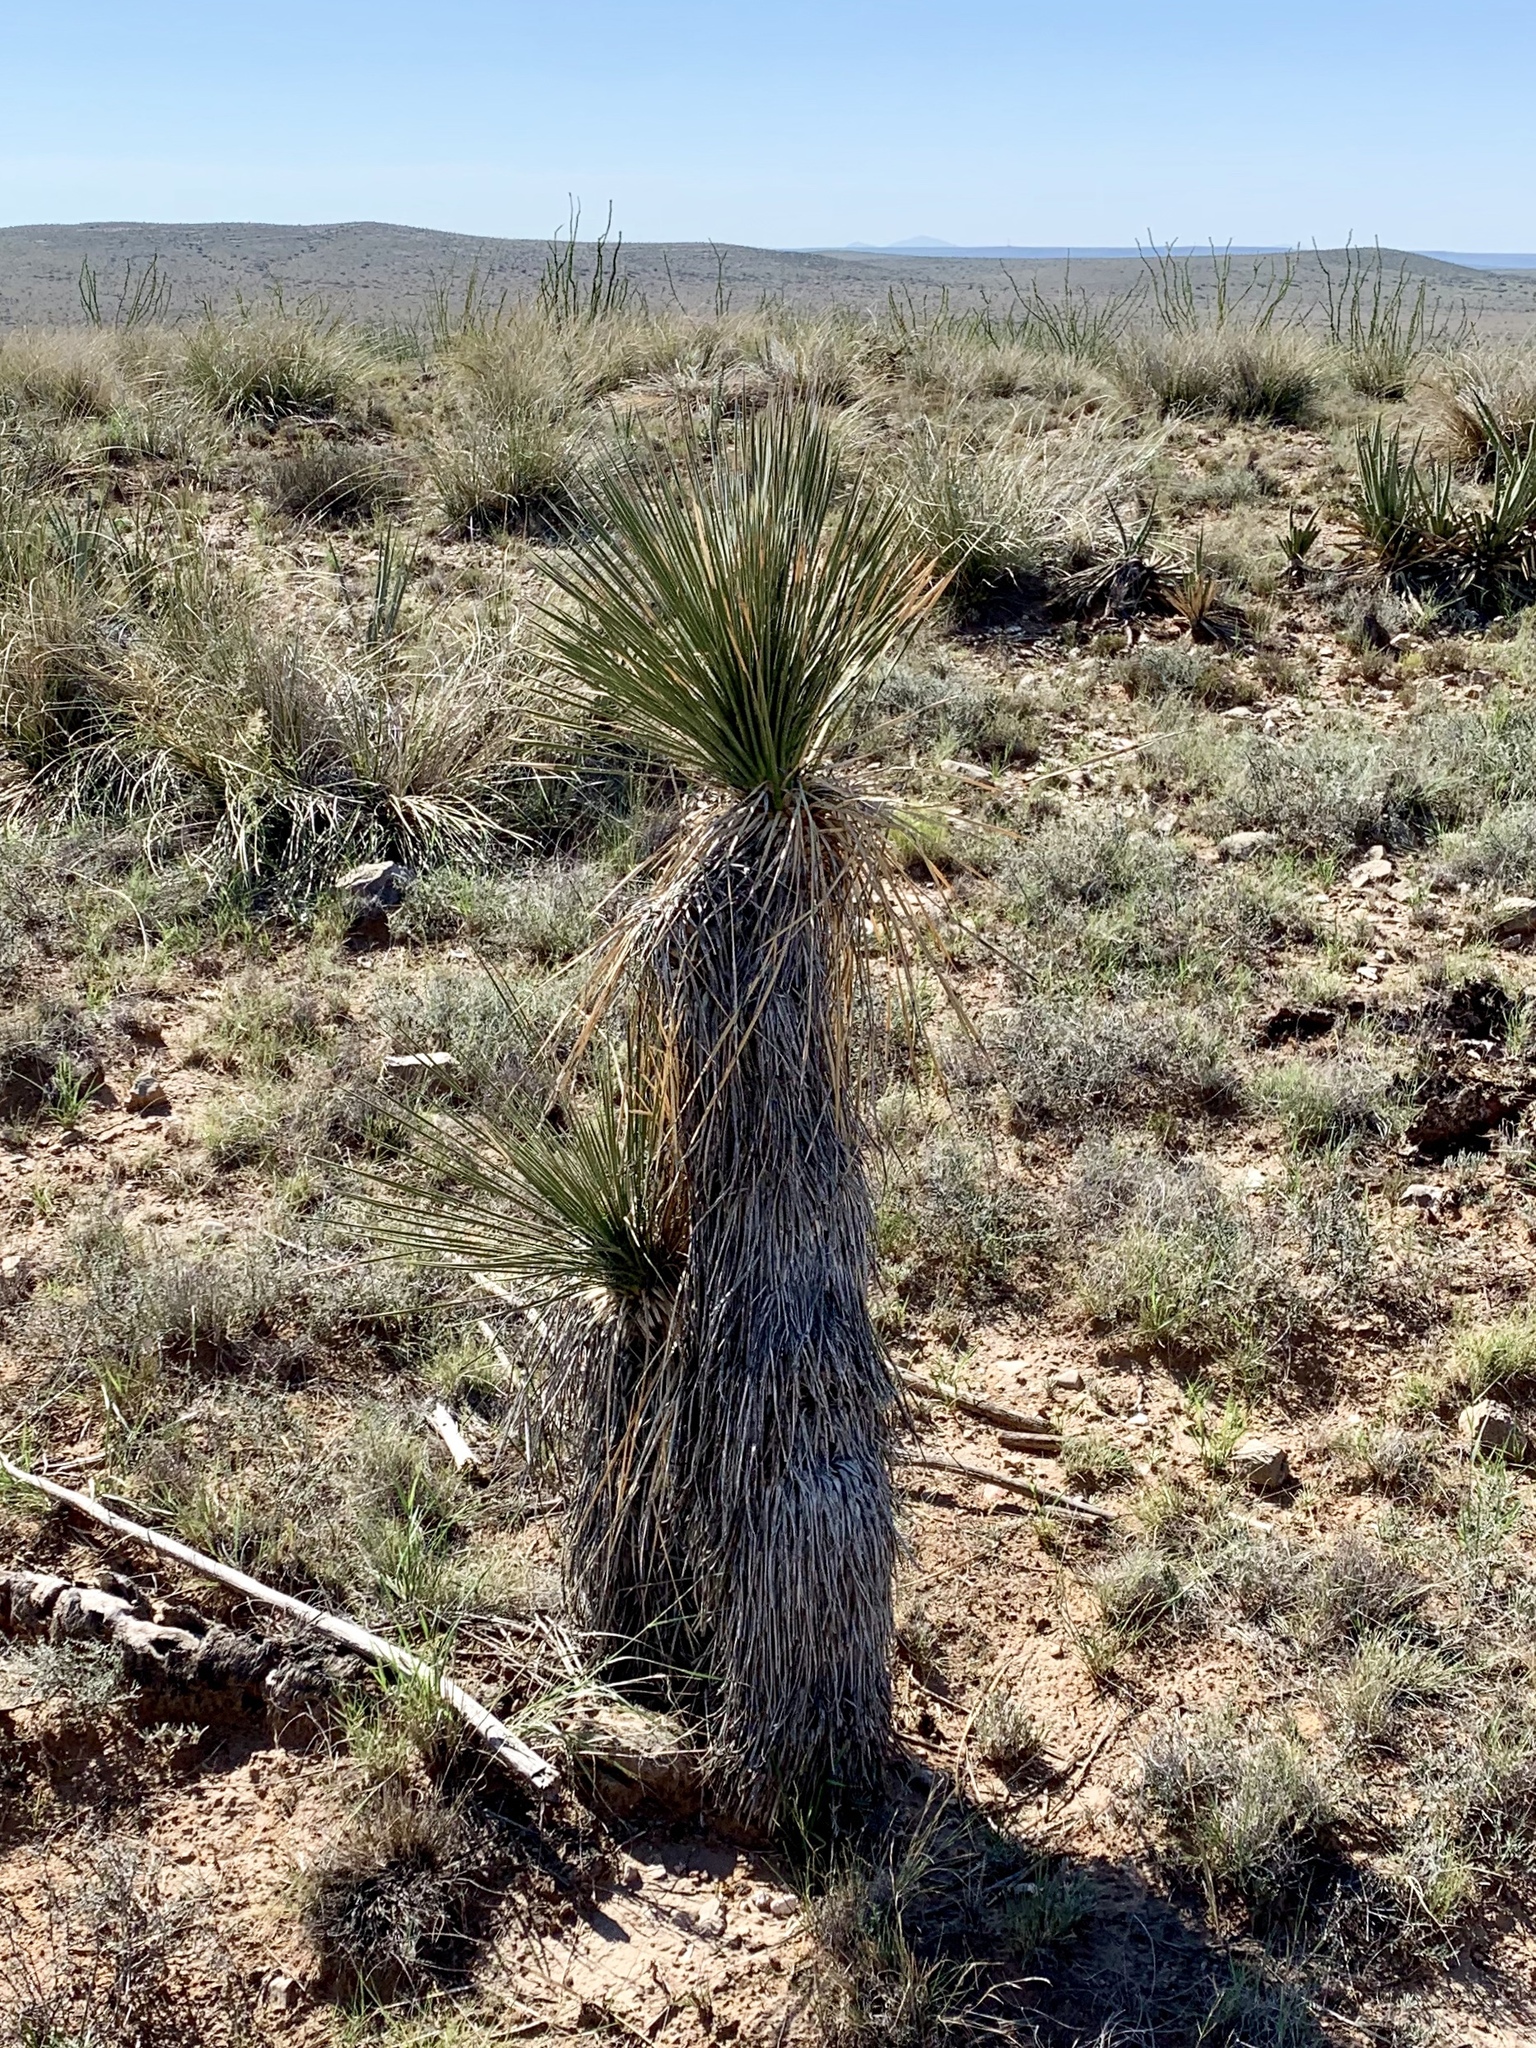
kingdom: Plantae
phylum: Tracheophyta
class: Liliopsida
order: Asparagales
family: Asparagaceae
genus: Yucca
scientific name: Yucca elata
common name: Palmella
